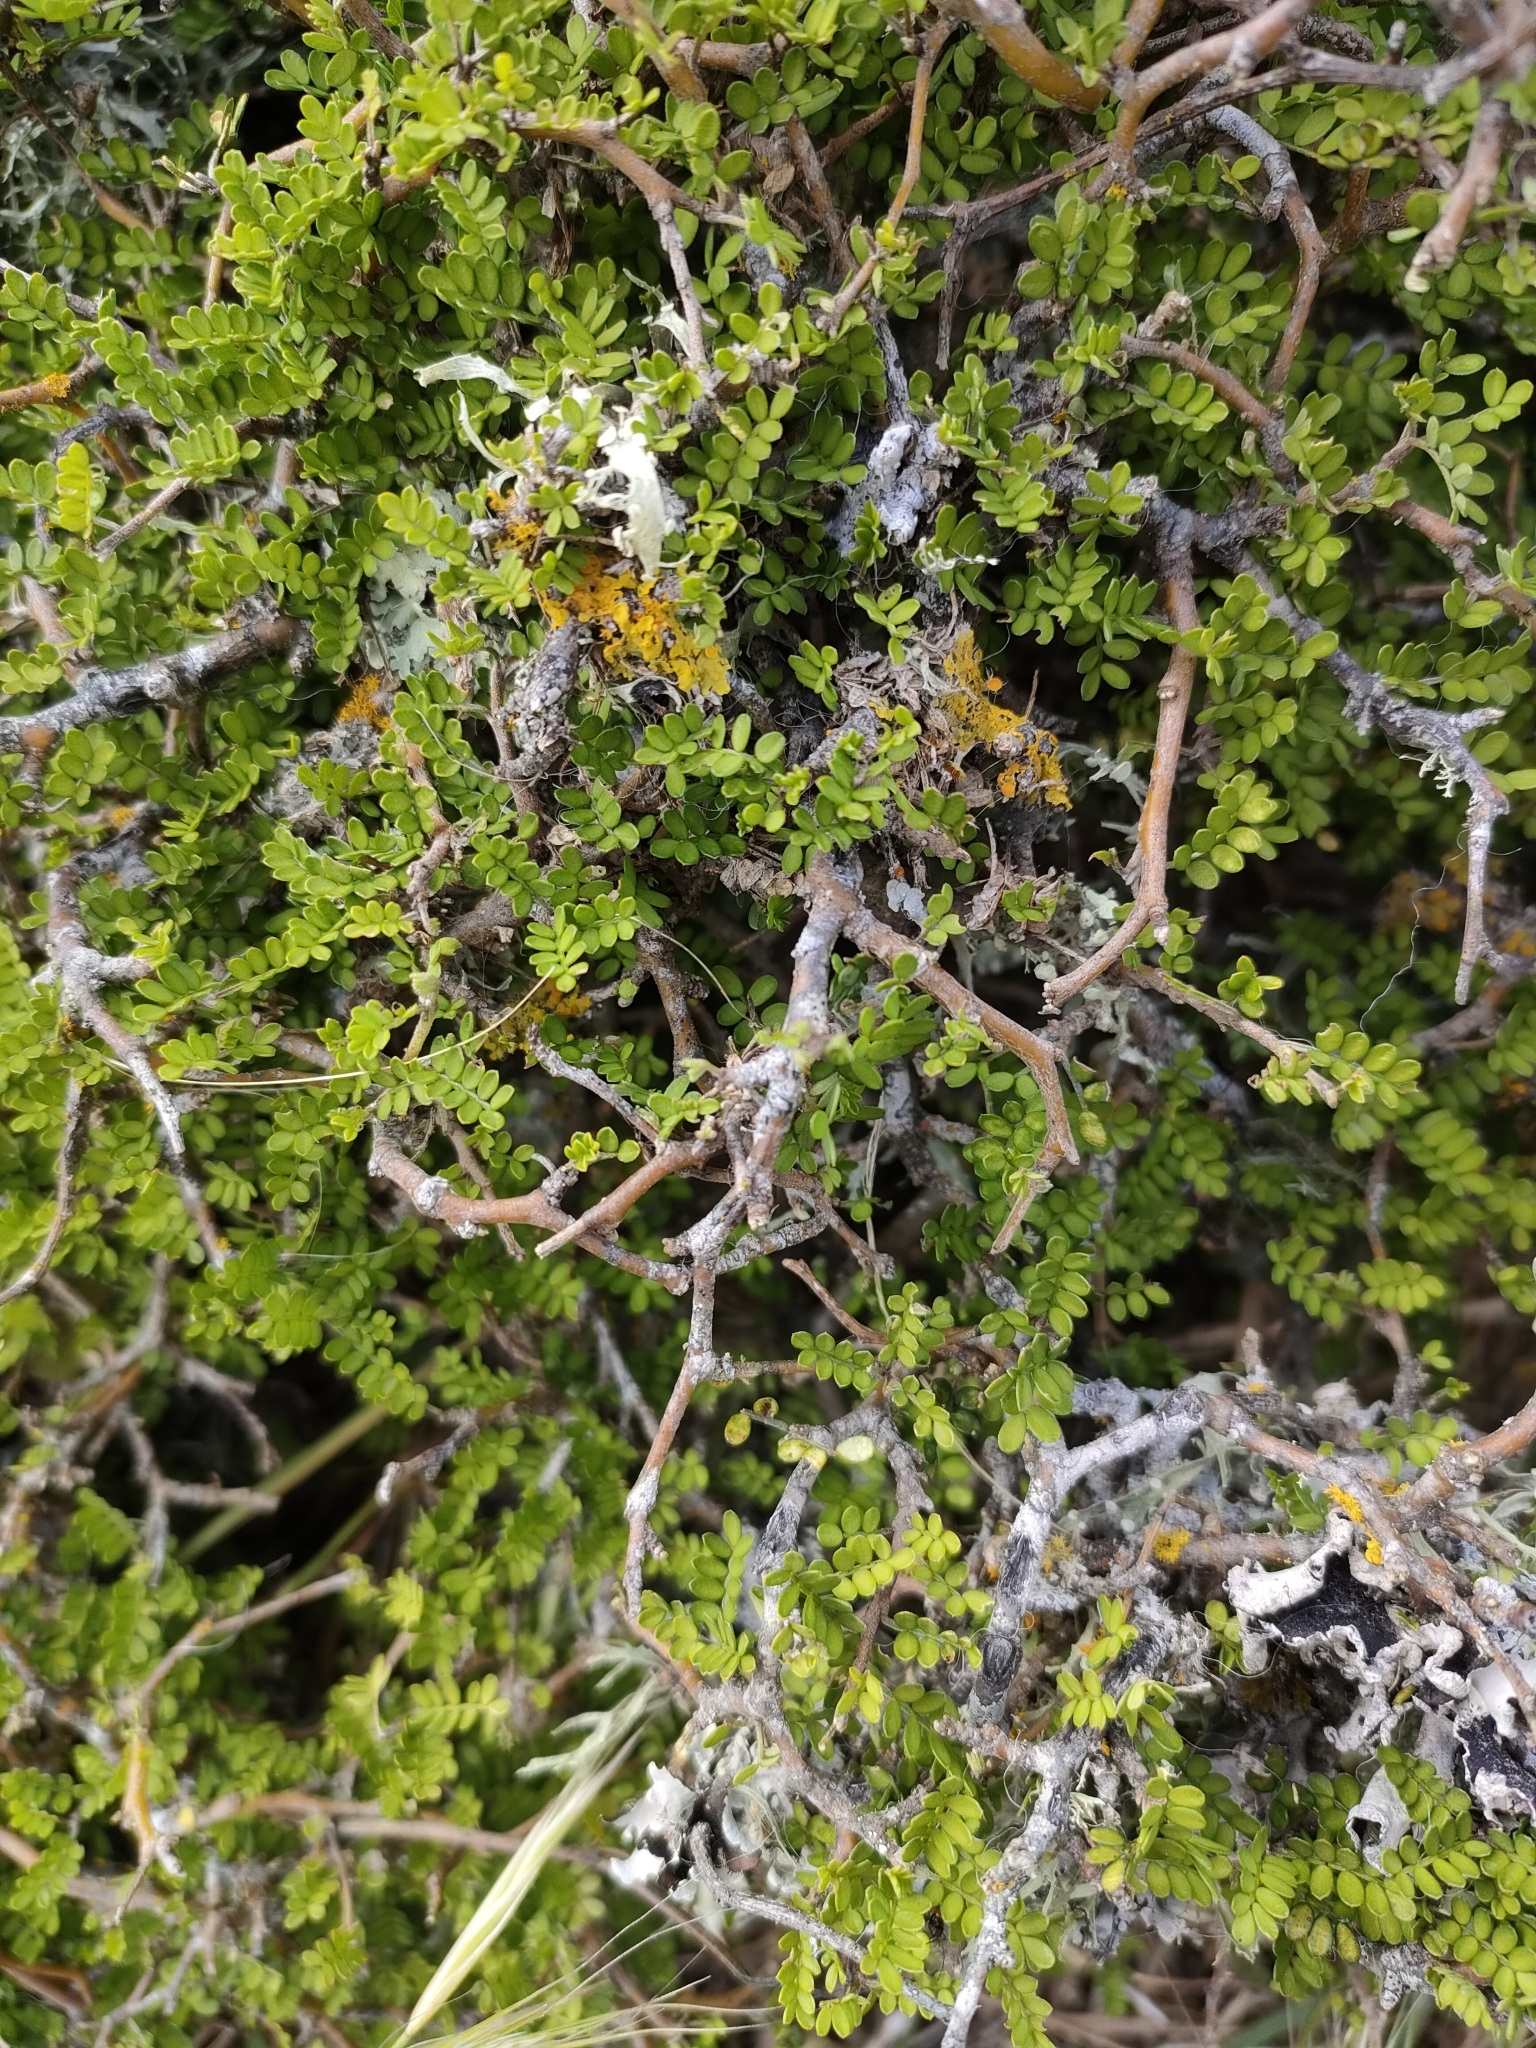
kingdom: Plantae
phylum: Tracheophyta
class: Magnoliopsida
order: Fabales
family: Fabaceae
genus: Sophora
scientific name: Sophora prostrata
